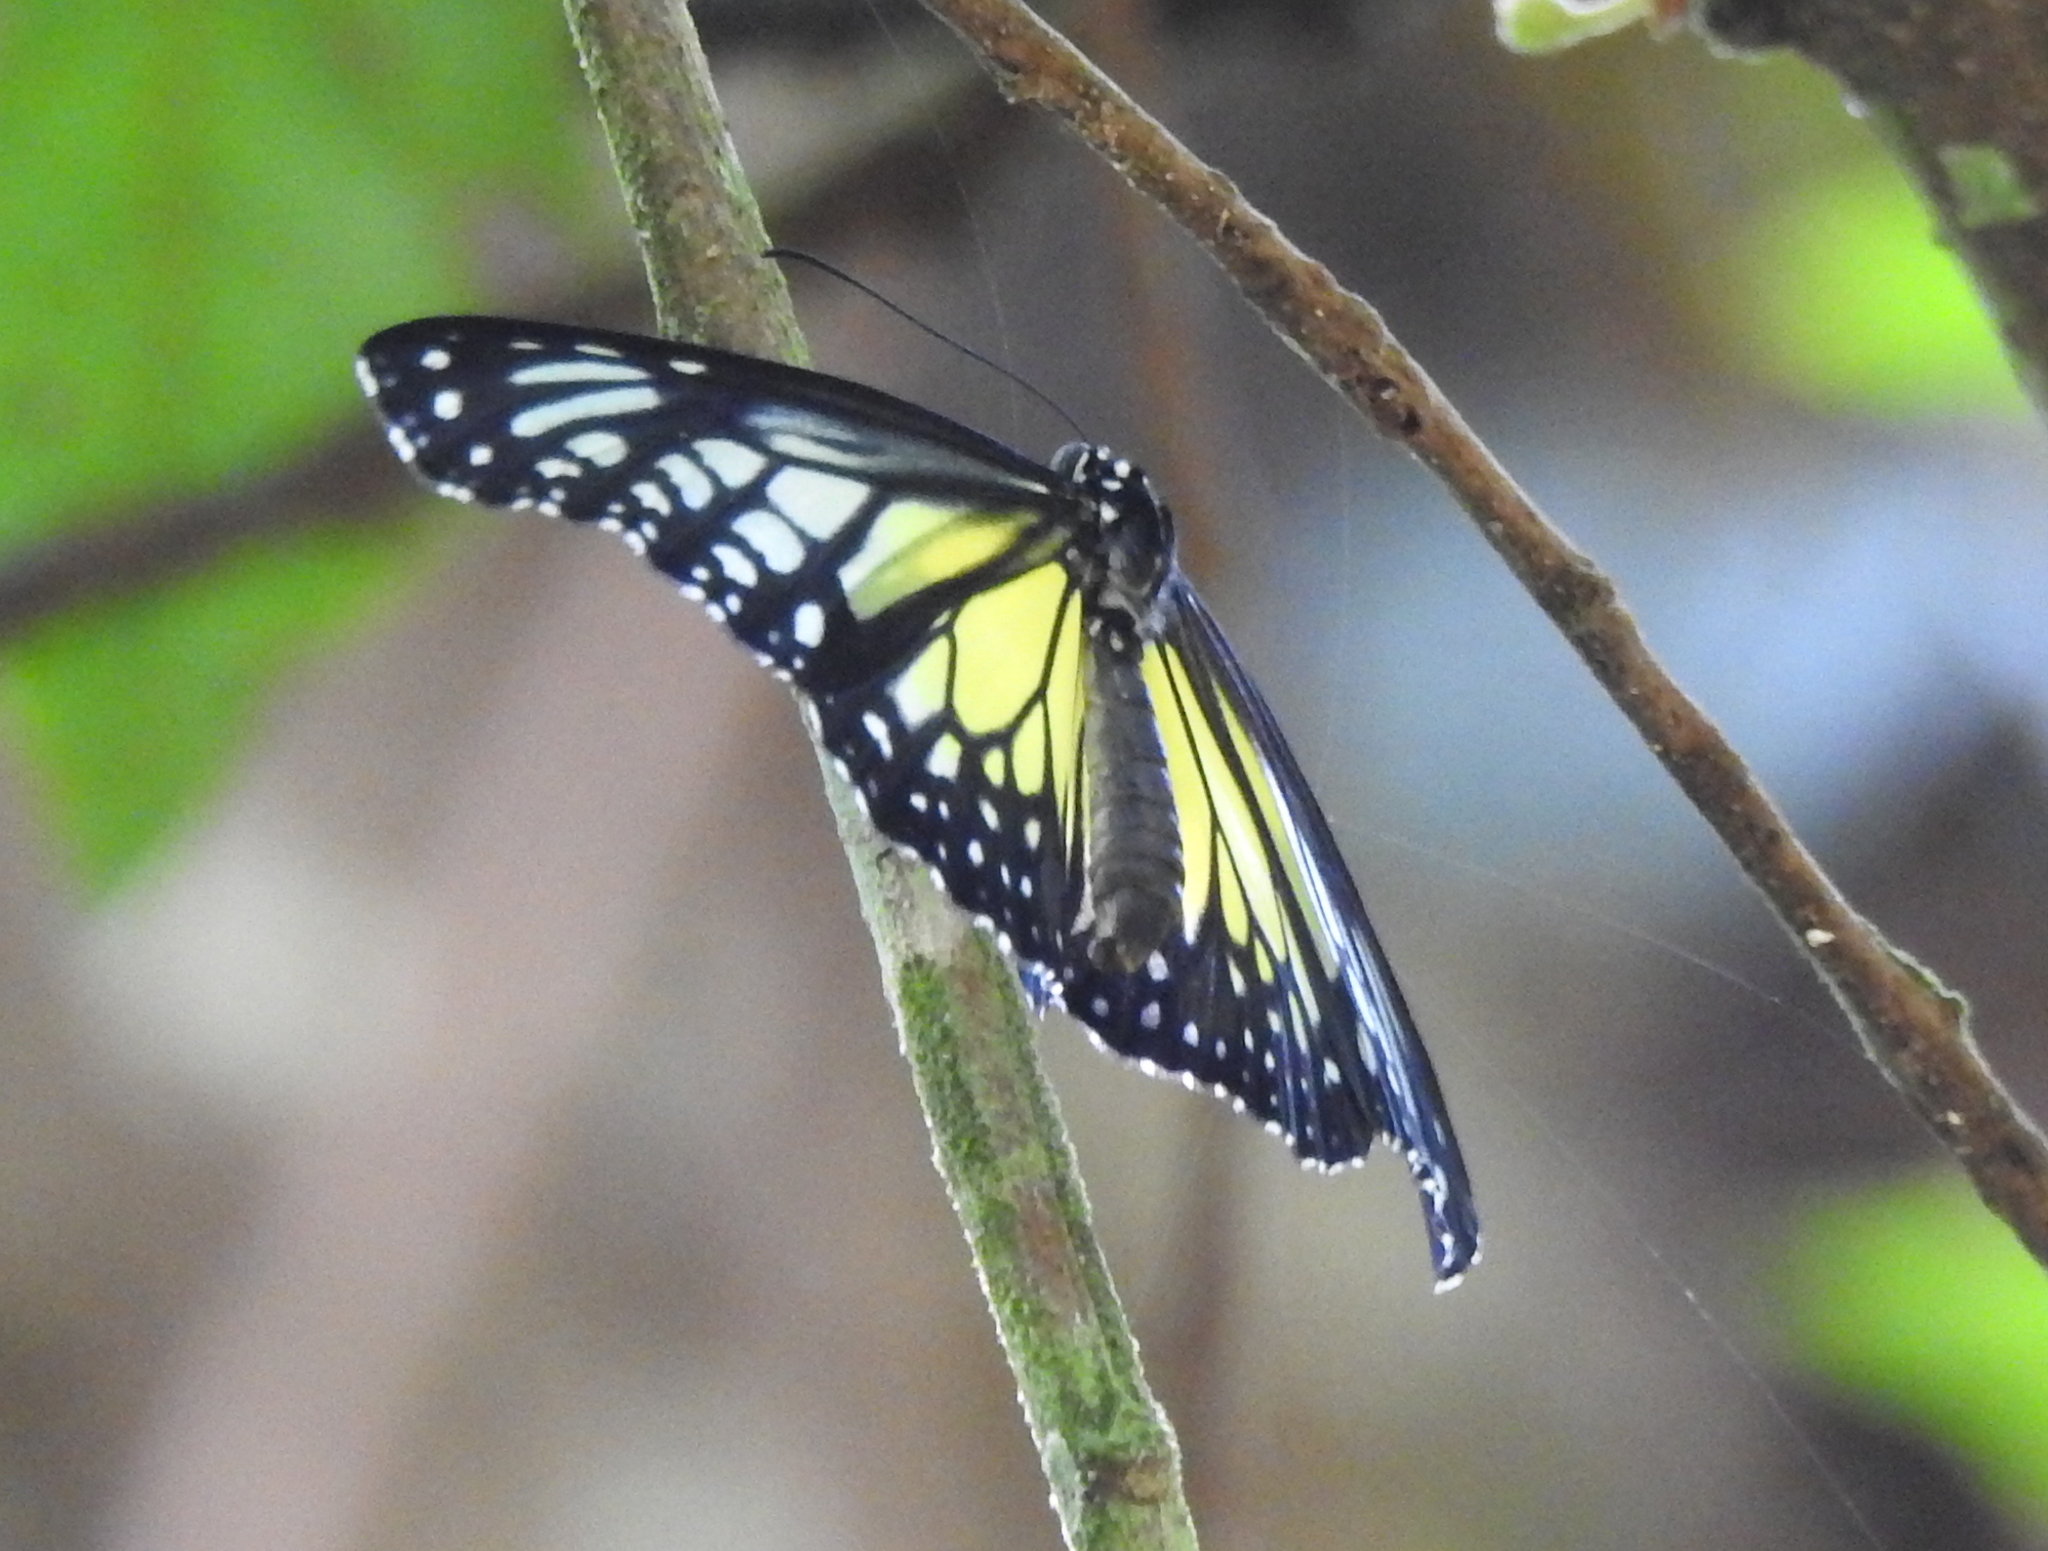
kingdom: Animalia
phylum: Arthropoda
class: Insecta
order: Lepidoptera
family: Nymphalidae
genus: Parantica
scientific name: Parantica aspasia
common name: Yellow glassy tiger
